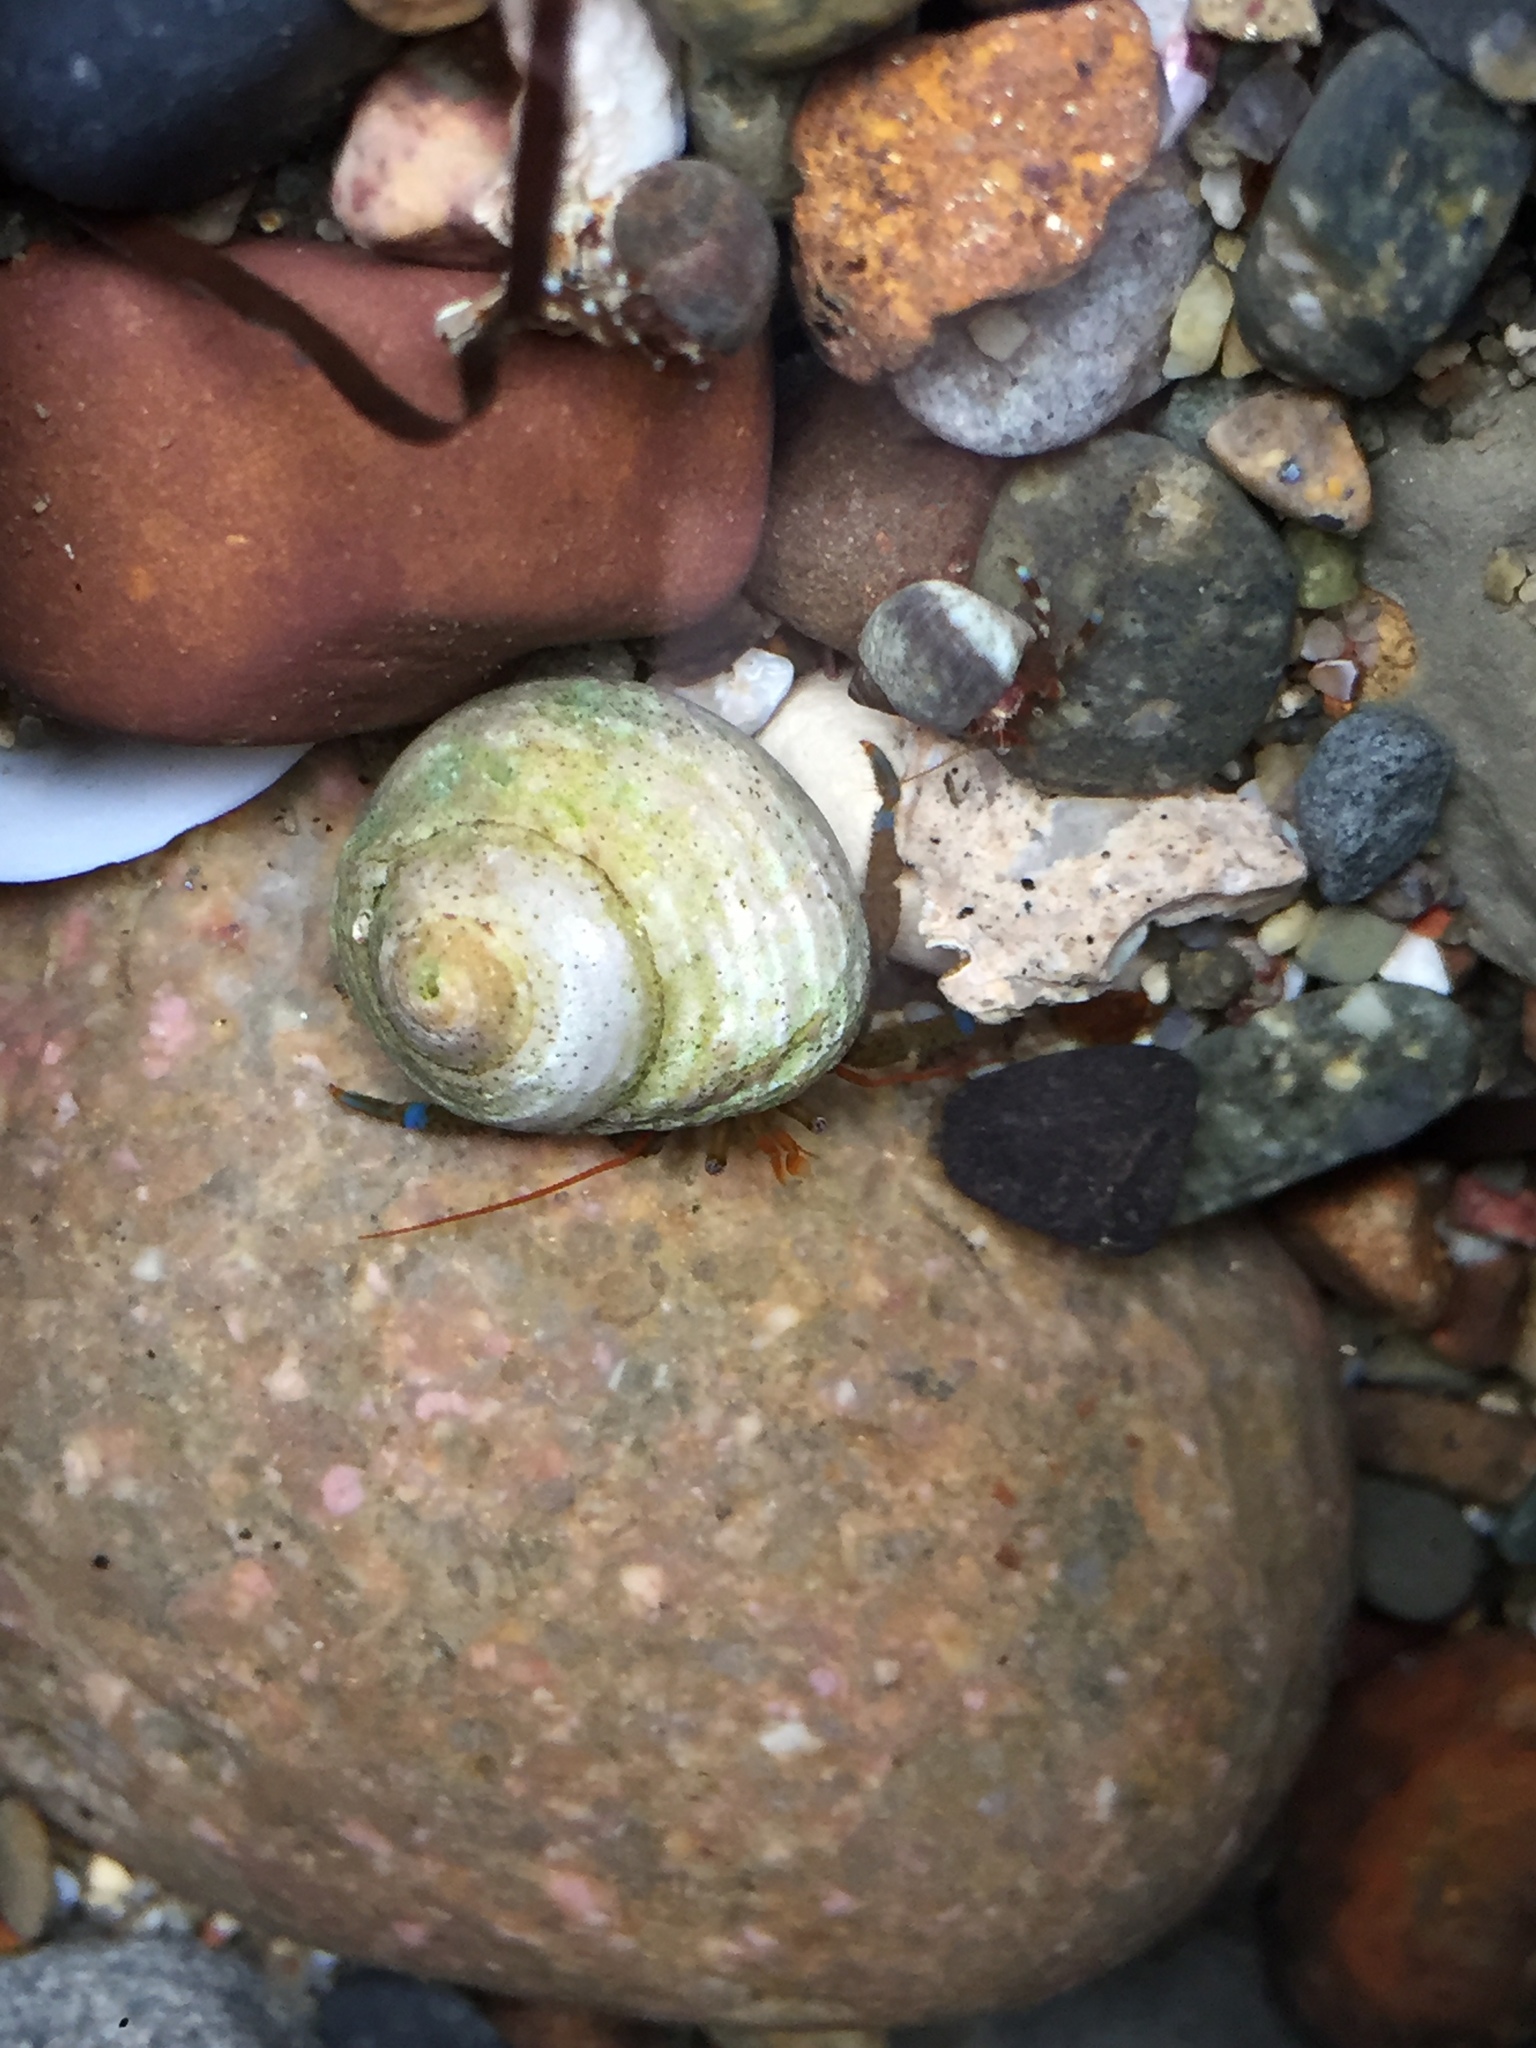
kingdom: Animalia
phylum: Arthropoda
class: Malacostraca
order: Decapoda
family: Paguridae
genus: Pagurus
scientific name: Pagurus samuelis
